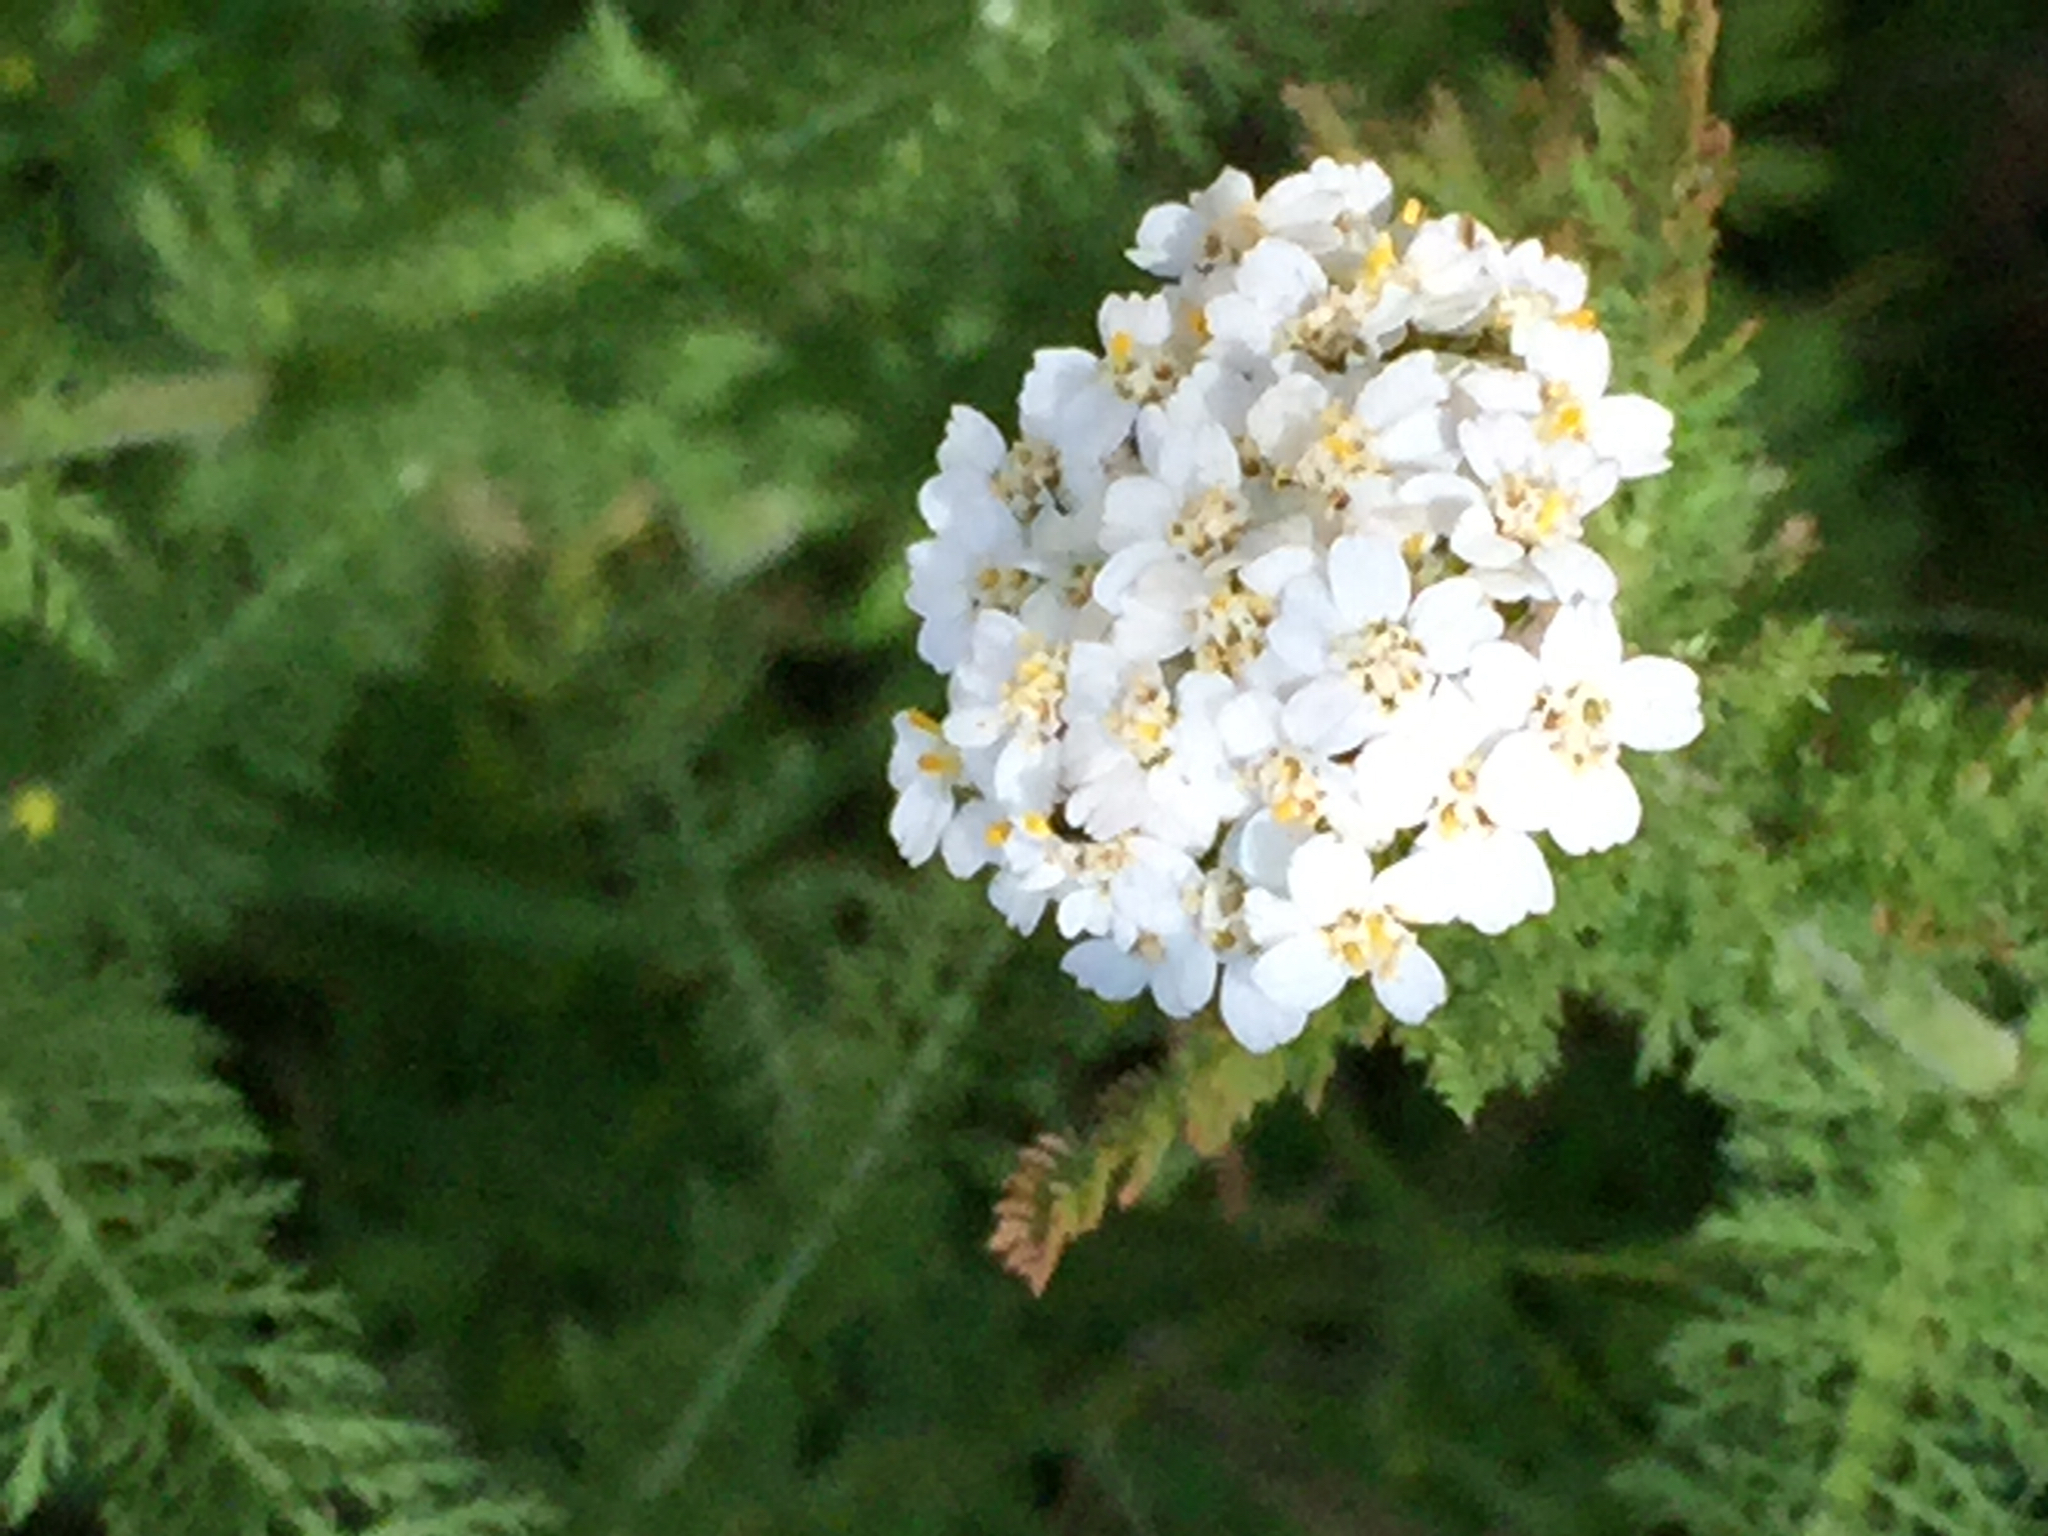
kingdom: Plantae
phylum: Tracheophyta
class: Magnoliopsida
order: Asterales
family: Asteraceae
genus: Achillea
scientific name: Achillea millefolium
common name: Yarrow
